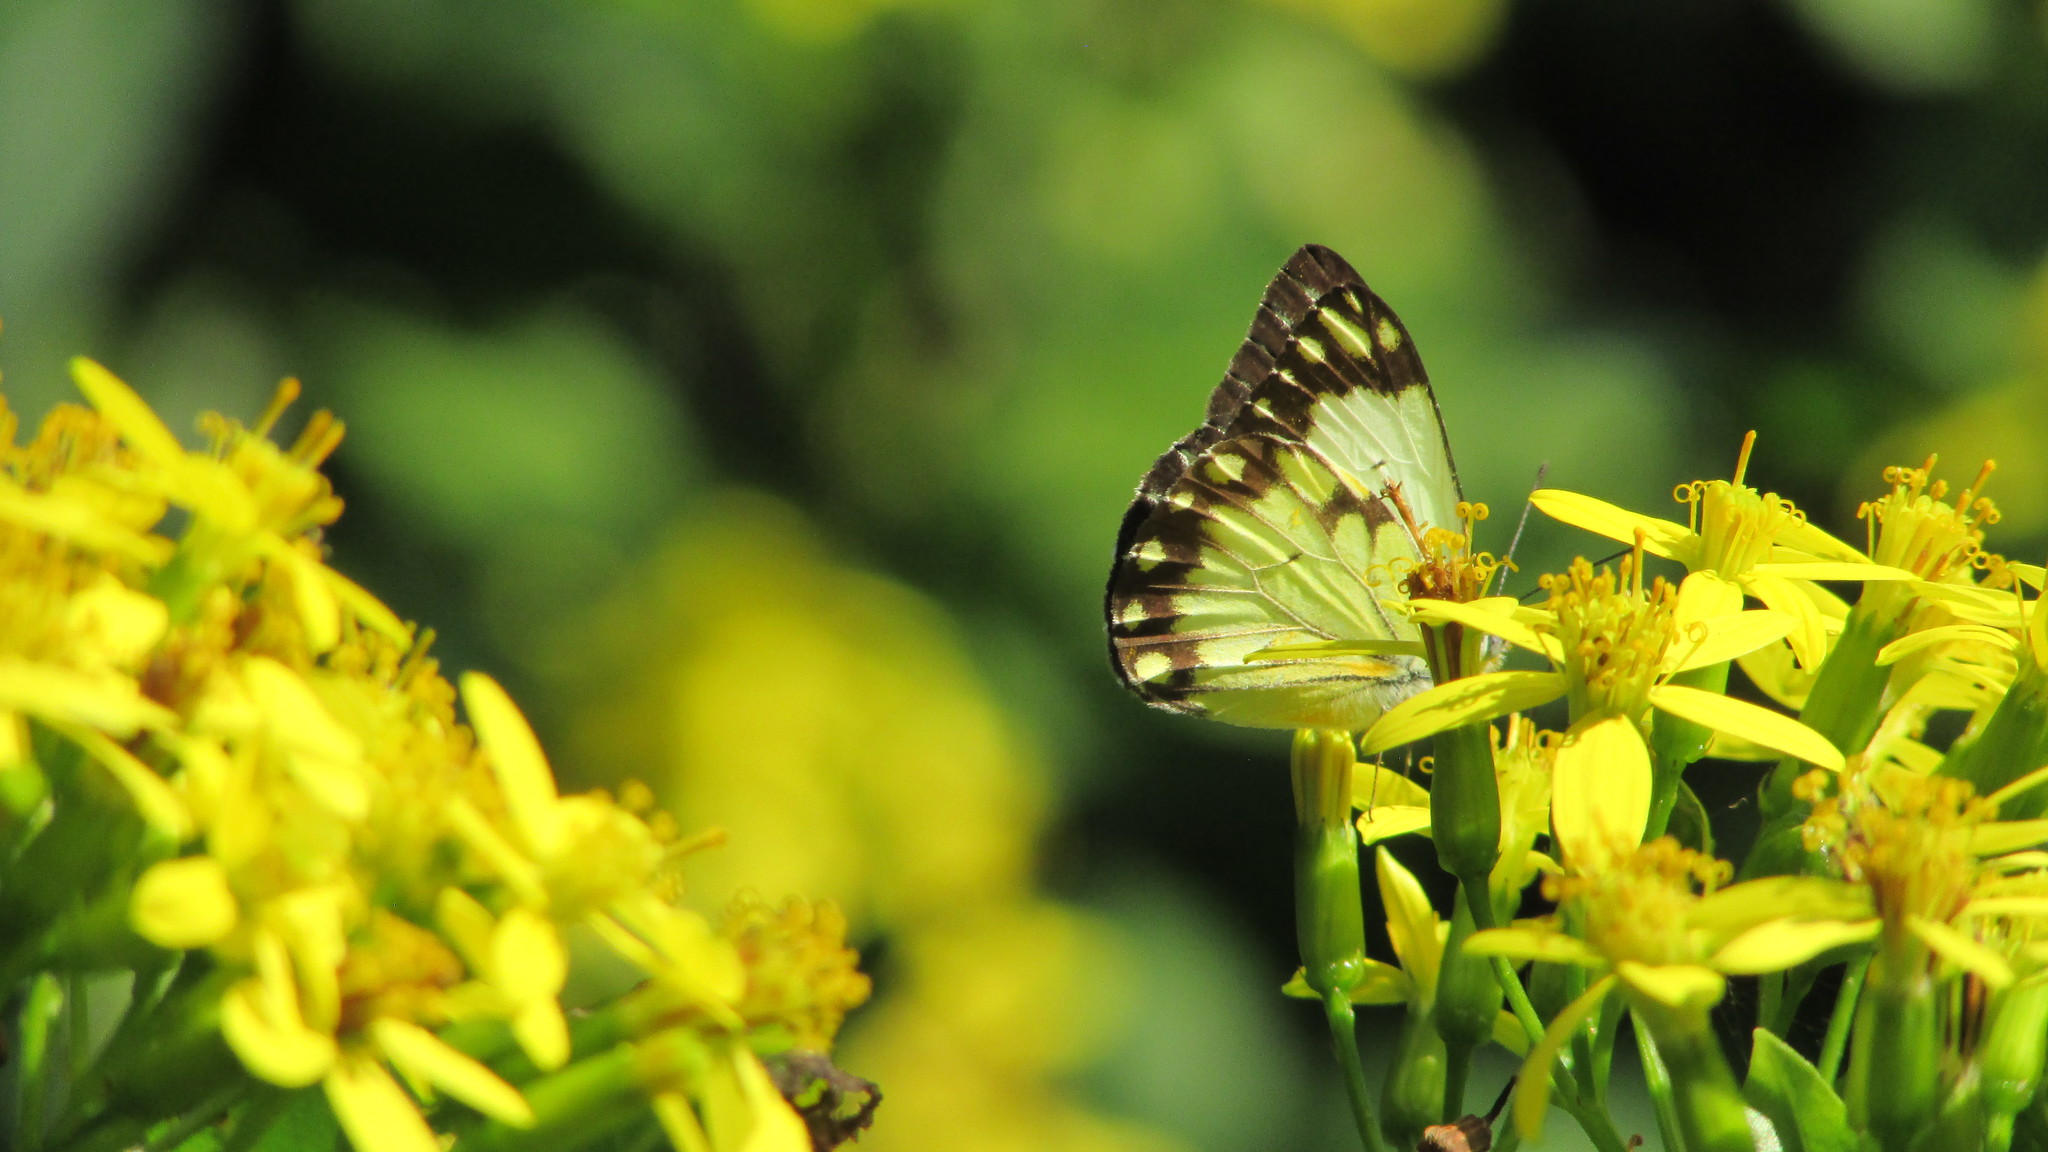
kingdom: Animalia
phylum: Arthropoda
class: Insecta
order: Lepidoptera
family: Pieridae
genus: Belenois
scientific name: Belenois creona
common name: African caper white
